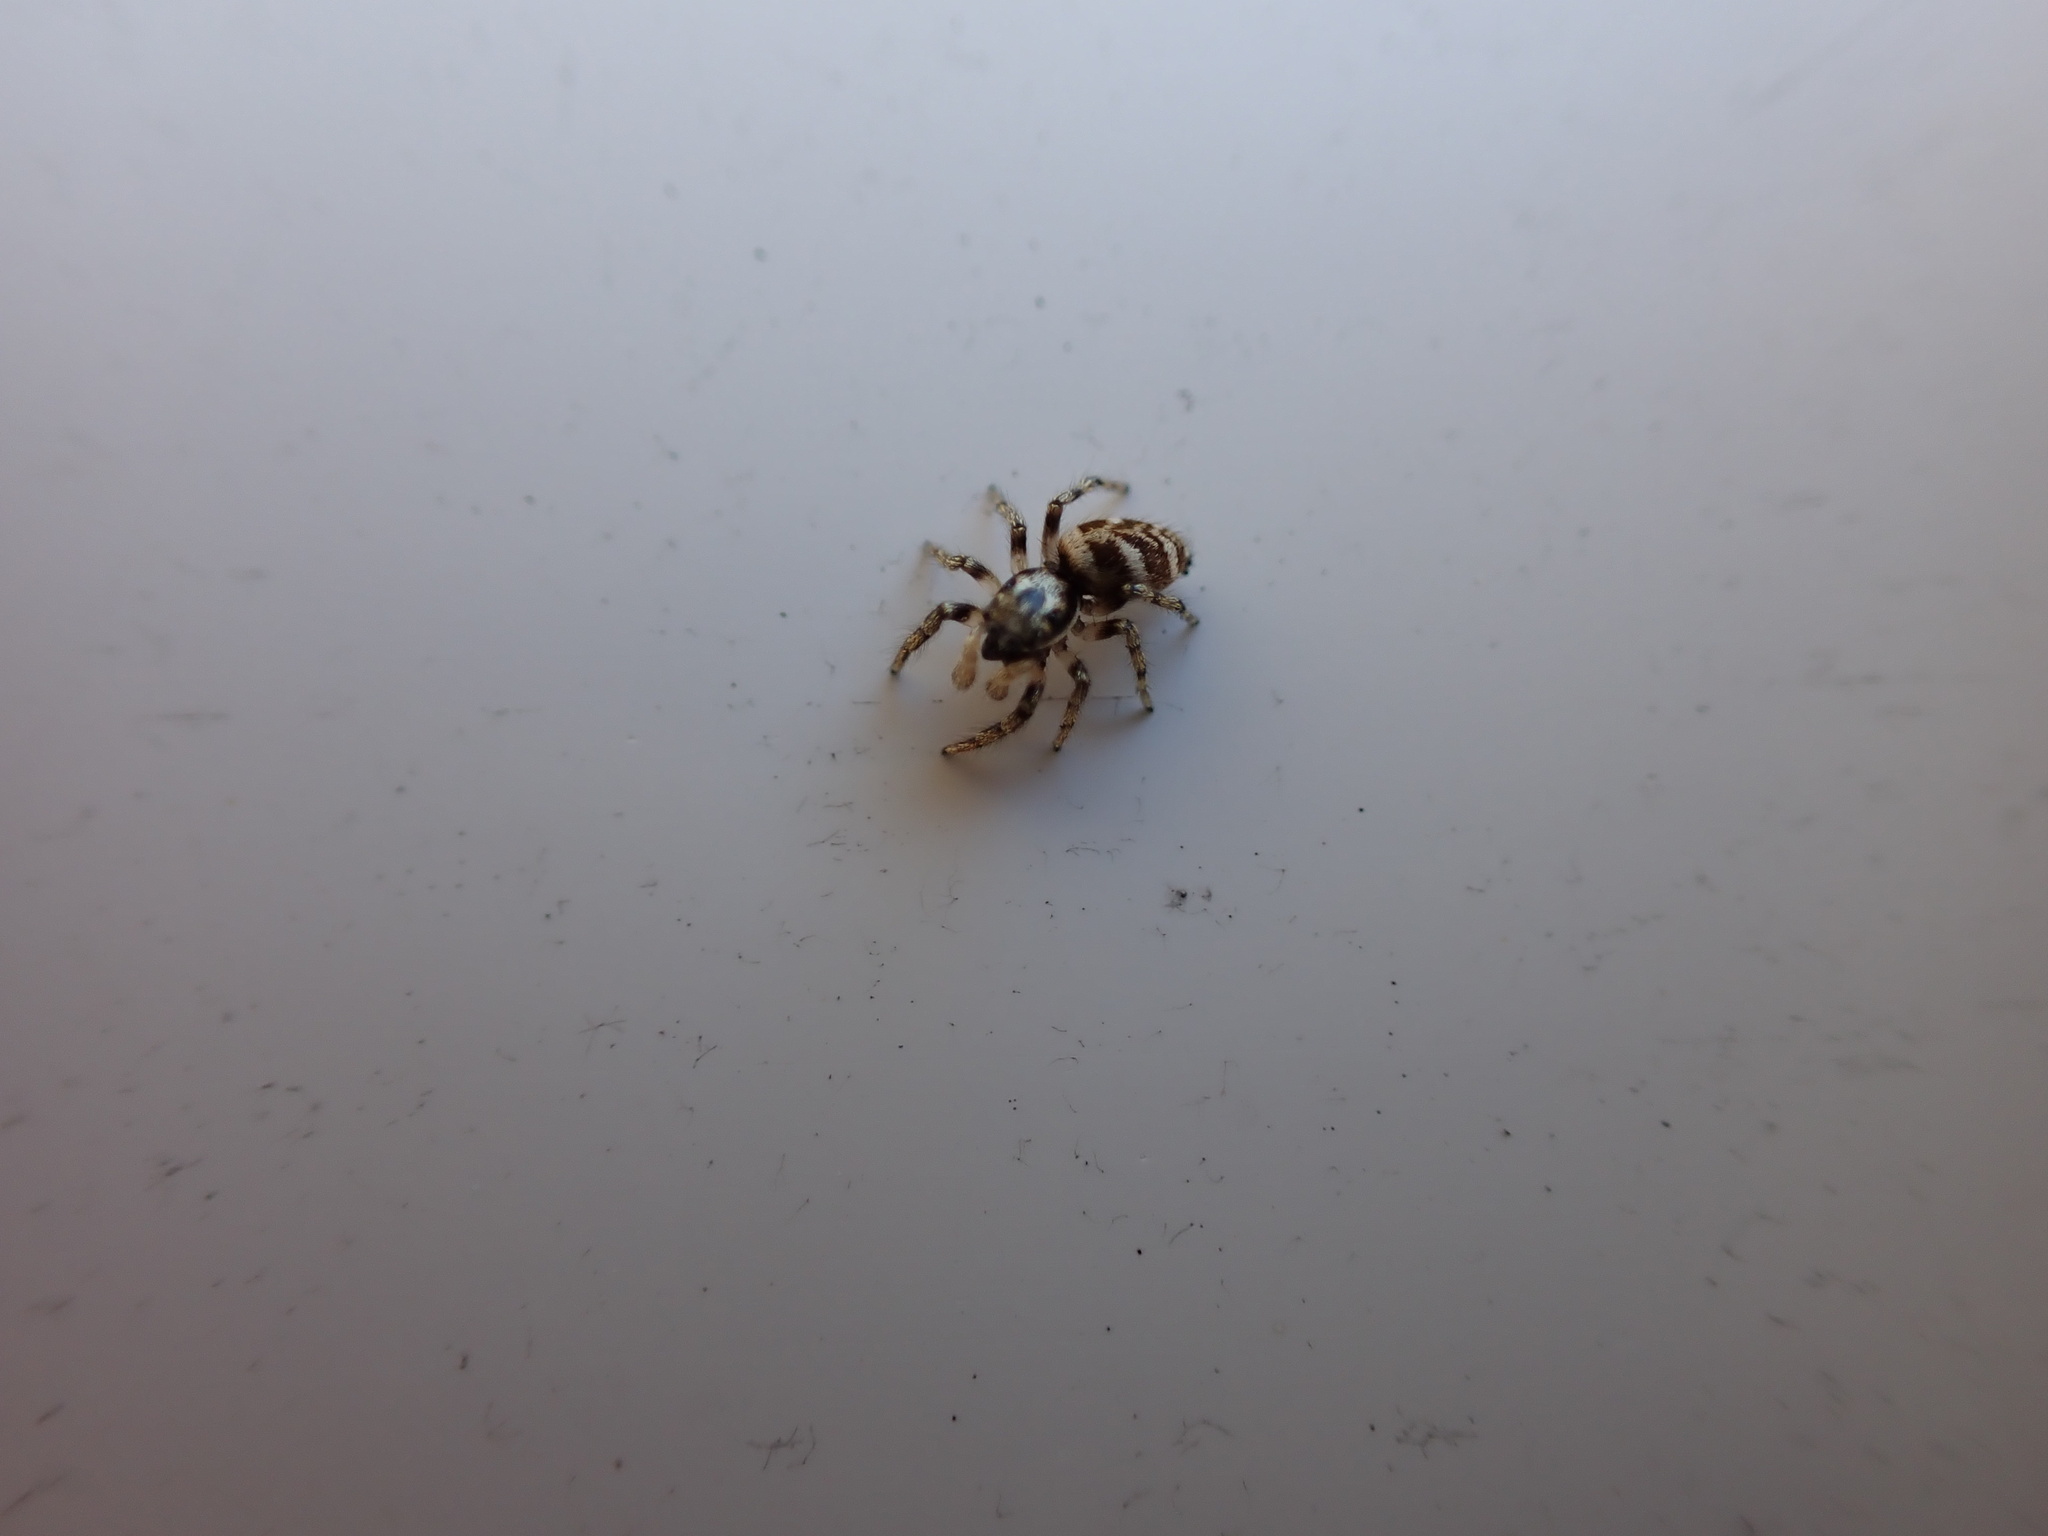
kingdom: Animalia
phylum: Arthropoda
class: Arachnida
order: Araneae
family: Salticidae
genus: Salticus
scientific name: Salticus scenicus
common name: Zebra jumper
